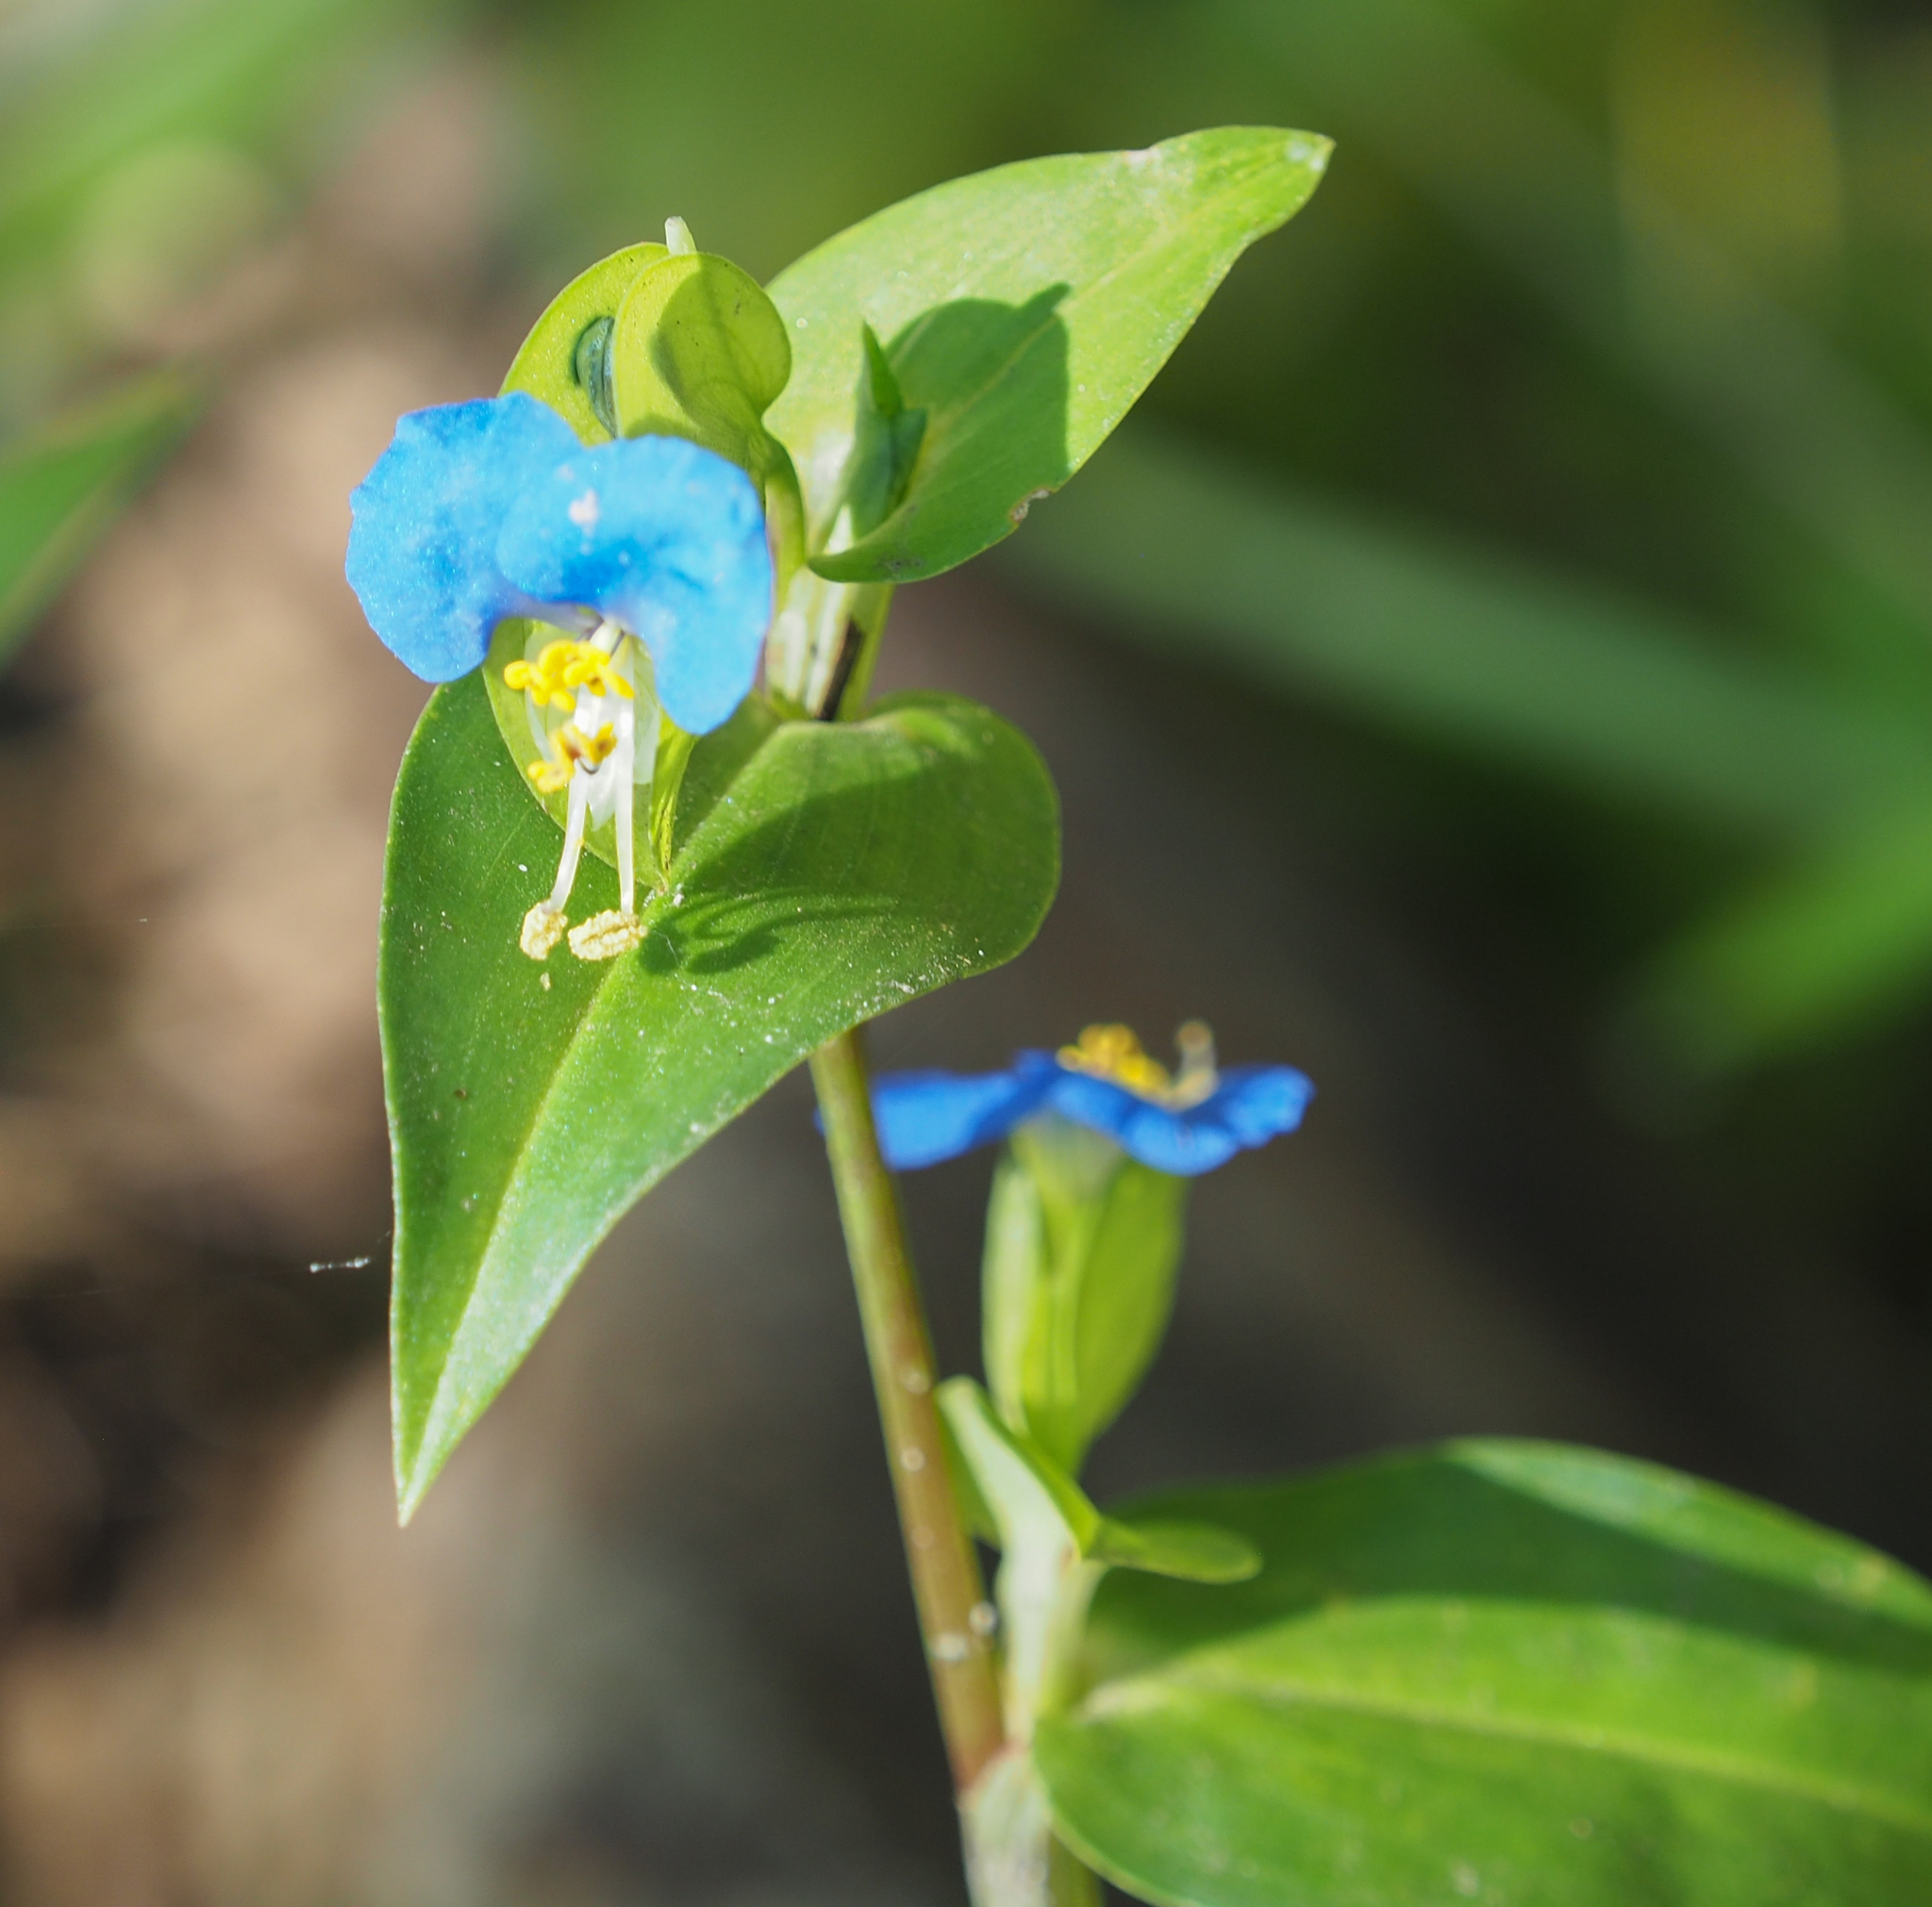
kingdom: Plantae
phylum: Tracheophyta
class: Liliopsida
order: Commelinales
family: Commelinaceae
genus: Commelina
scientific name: Commelina communis
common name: Asiatic dayflower
